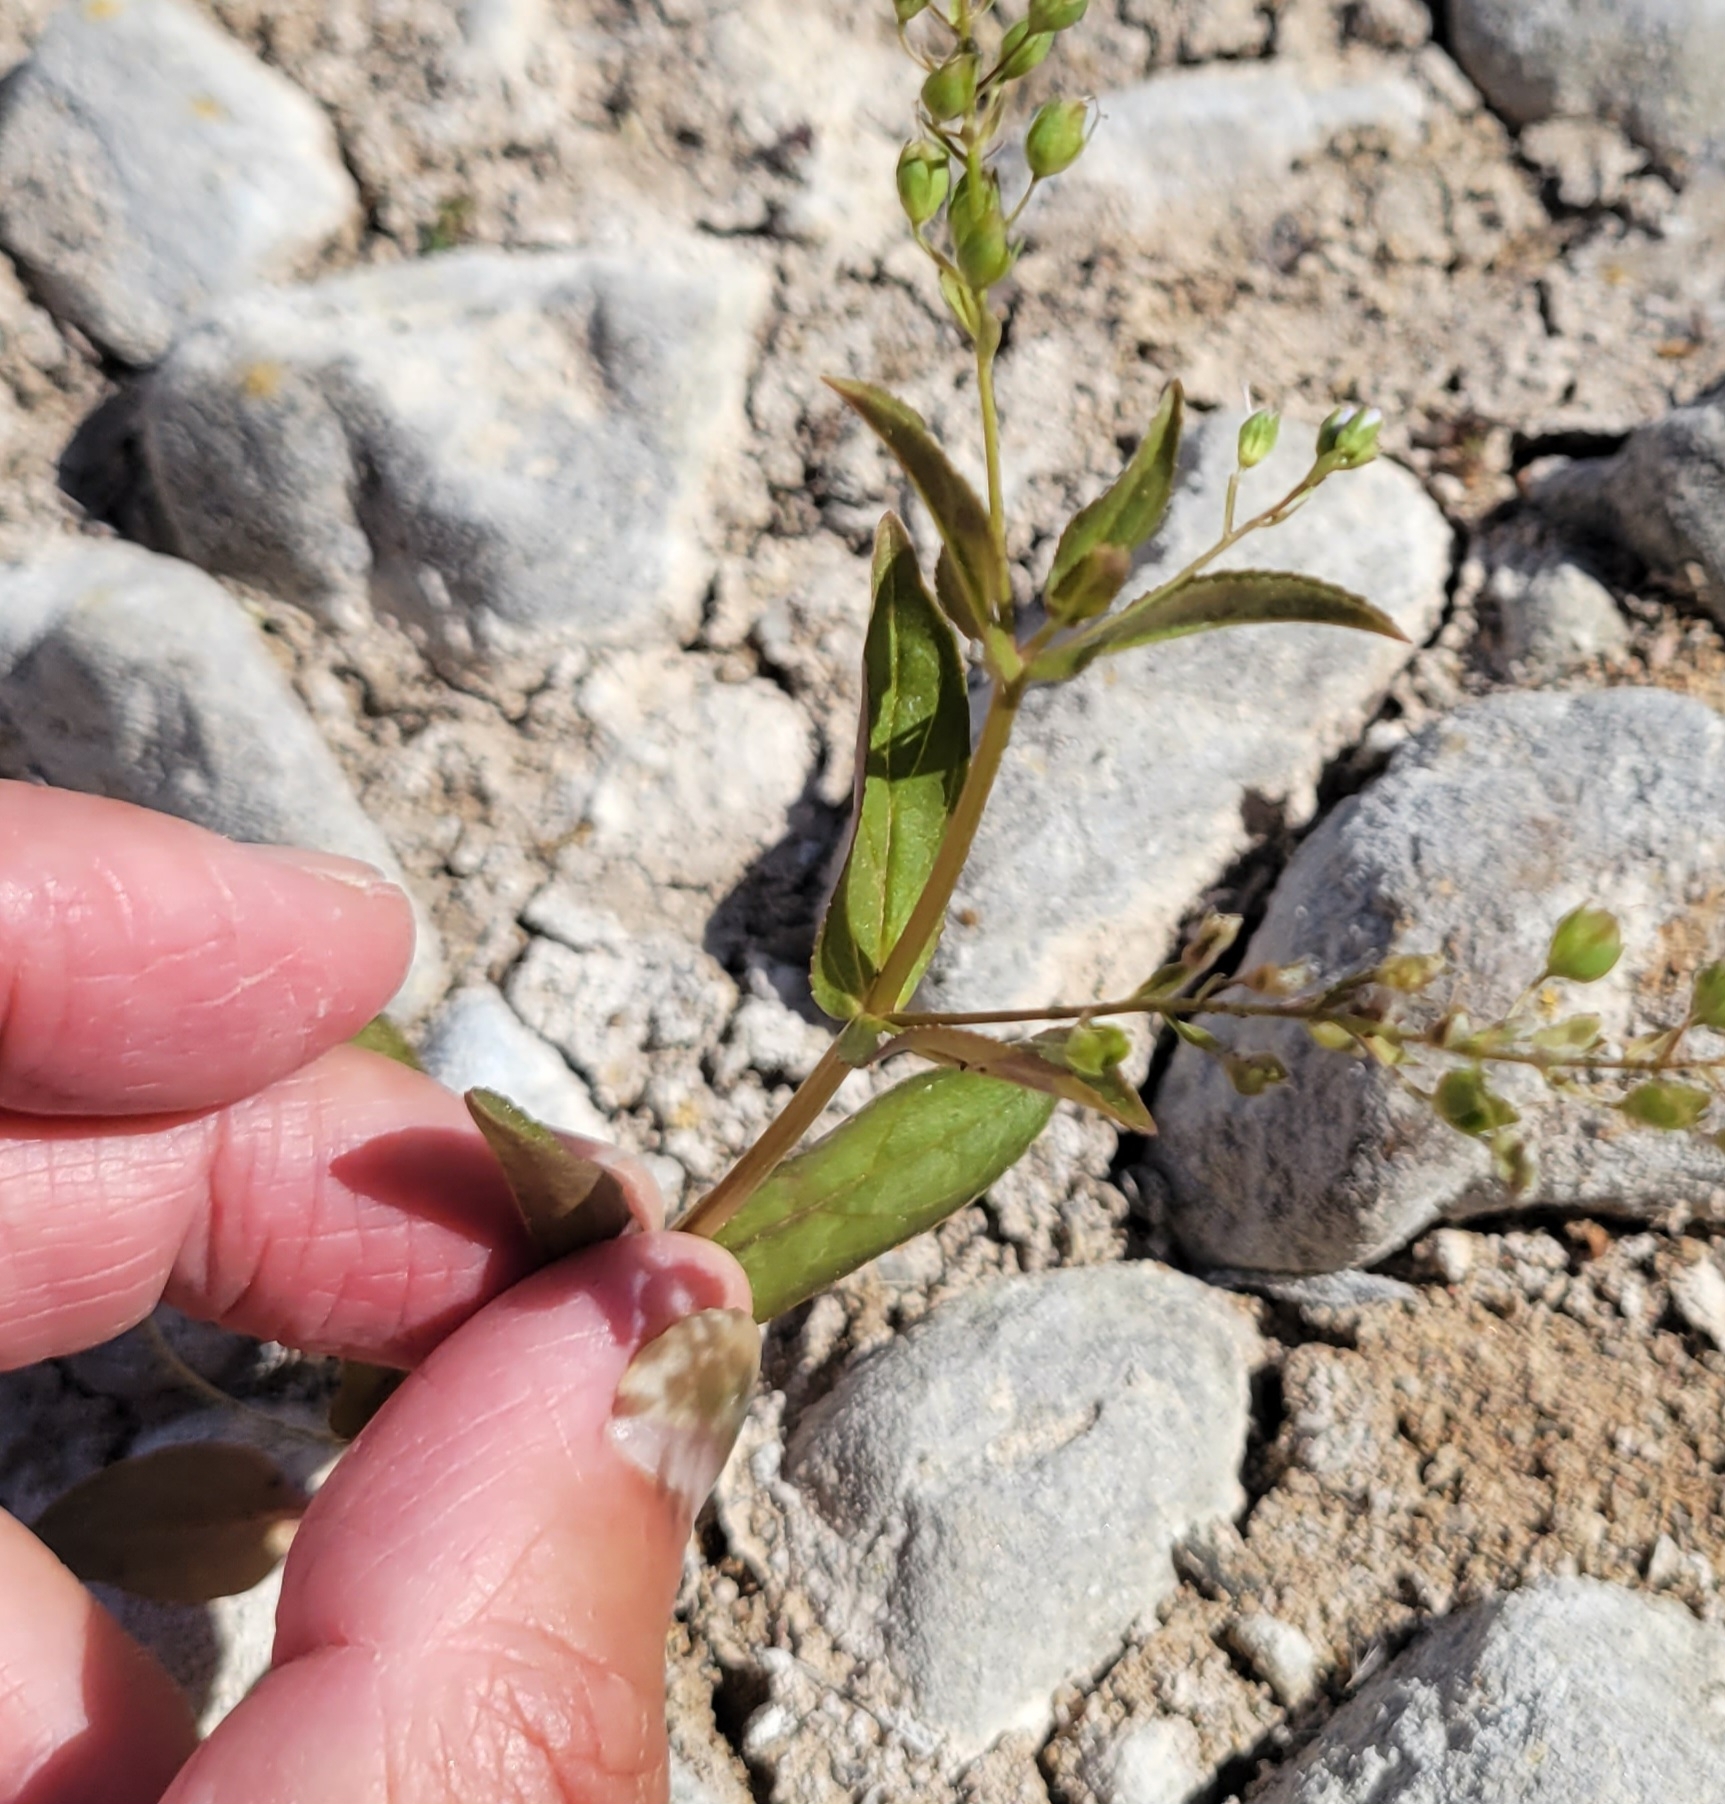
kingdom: Plantae
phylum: Tracheophyta
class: Magnoliopsida
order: Lamiales
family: Plantaginaceae
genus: Veronica
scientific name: Veronica anagallis-aquatica
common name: Water speedwell
